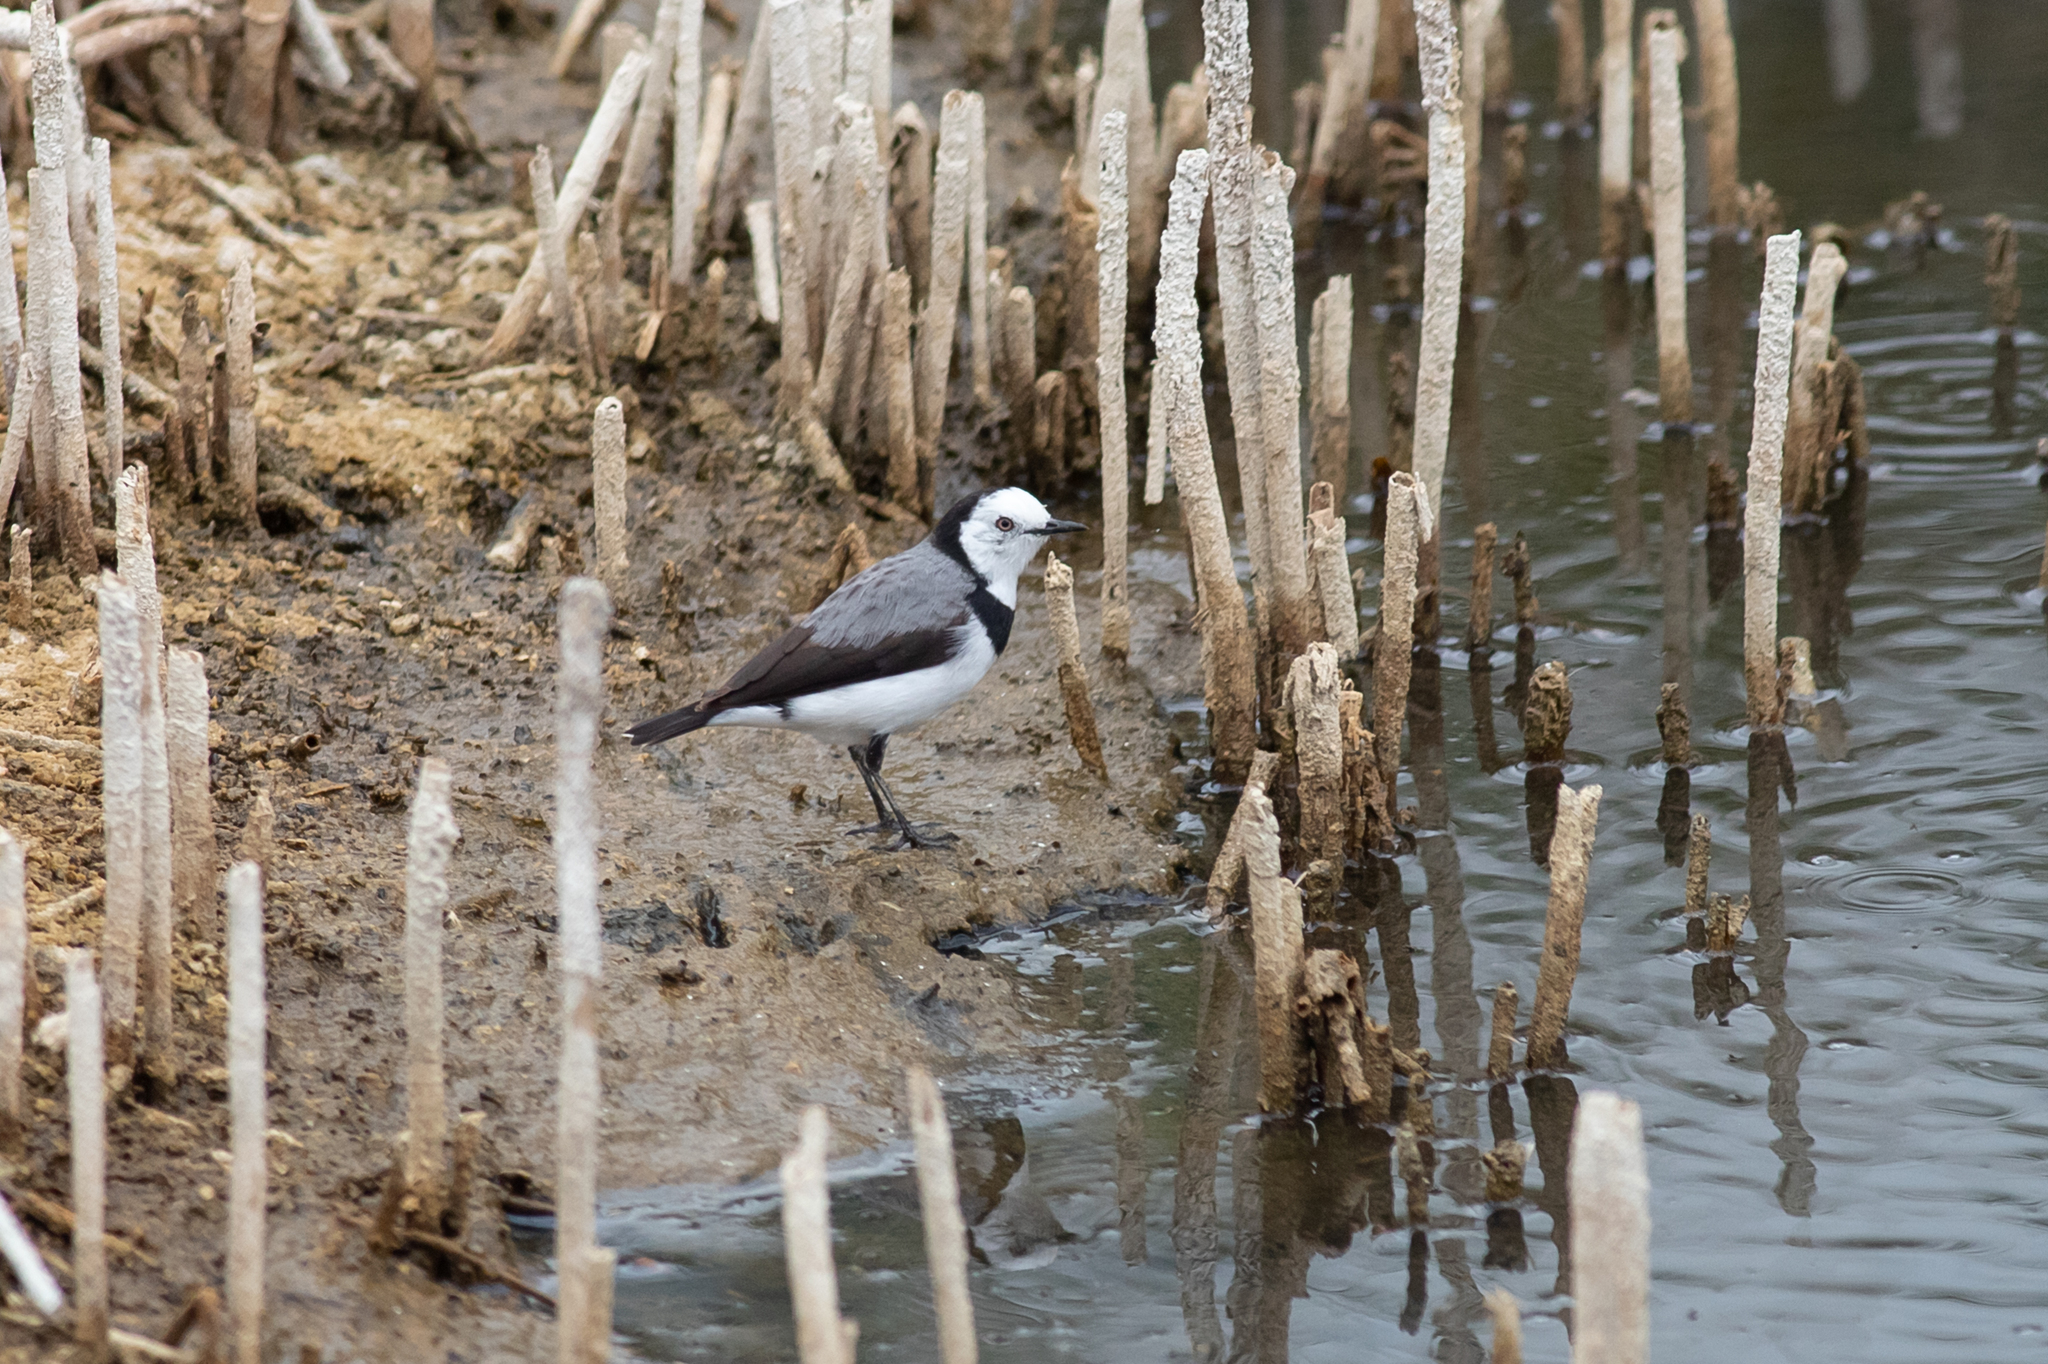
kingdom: Animalia
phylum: Chordata
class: Aves
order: Passeriformes
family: Meliphagidae
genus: Epthianura
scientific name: Epthianura albifrons
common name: White-fronted chat
